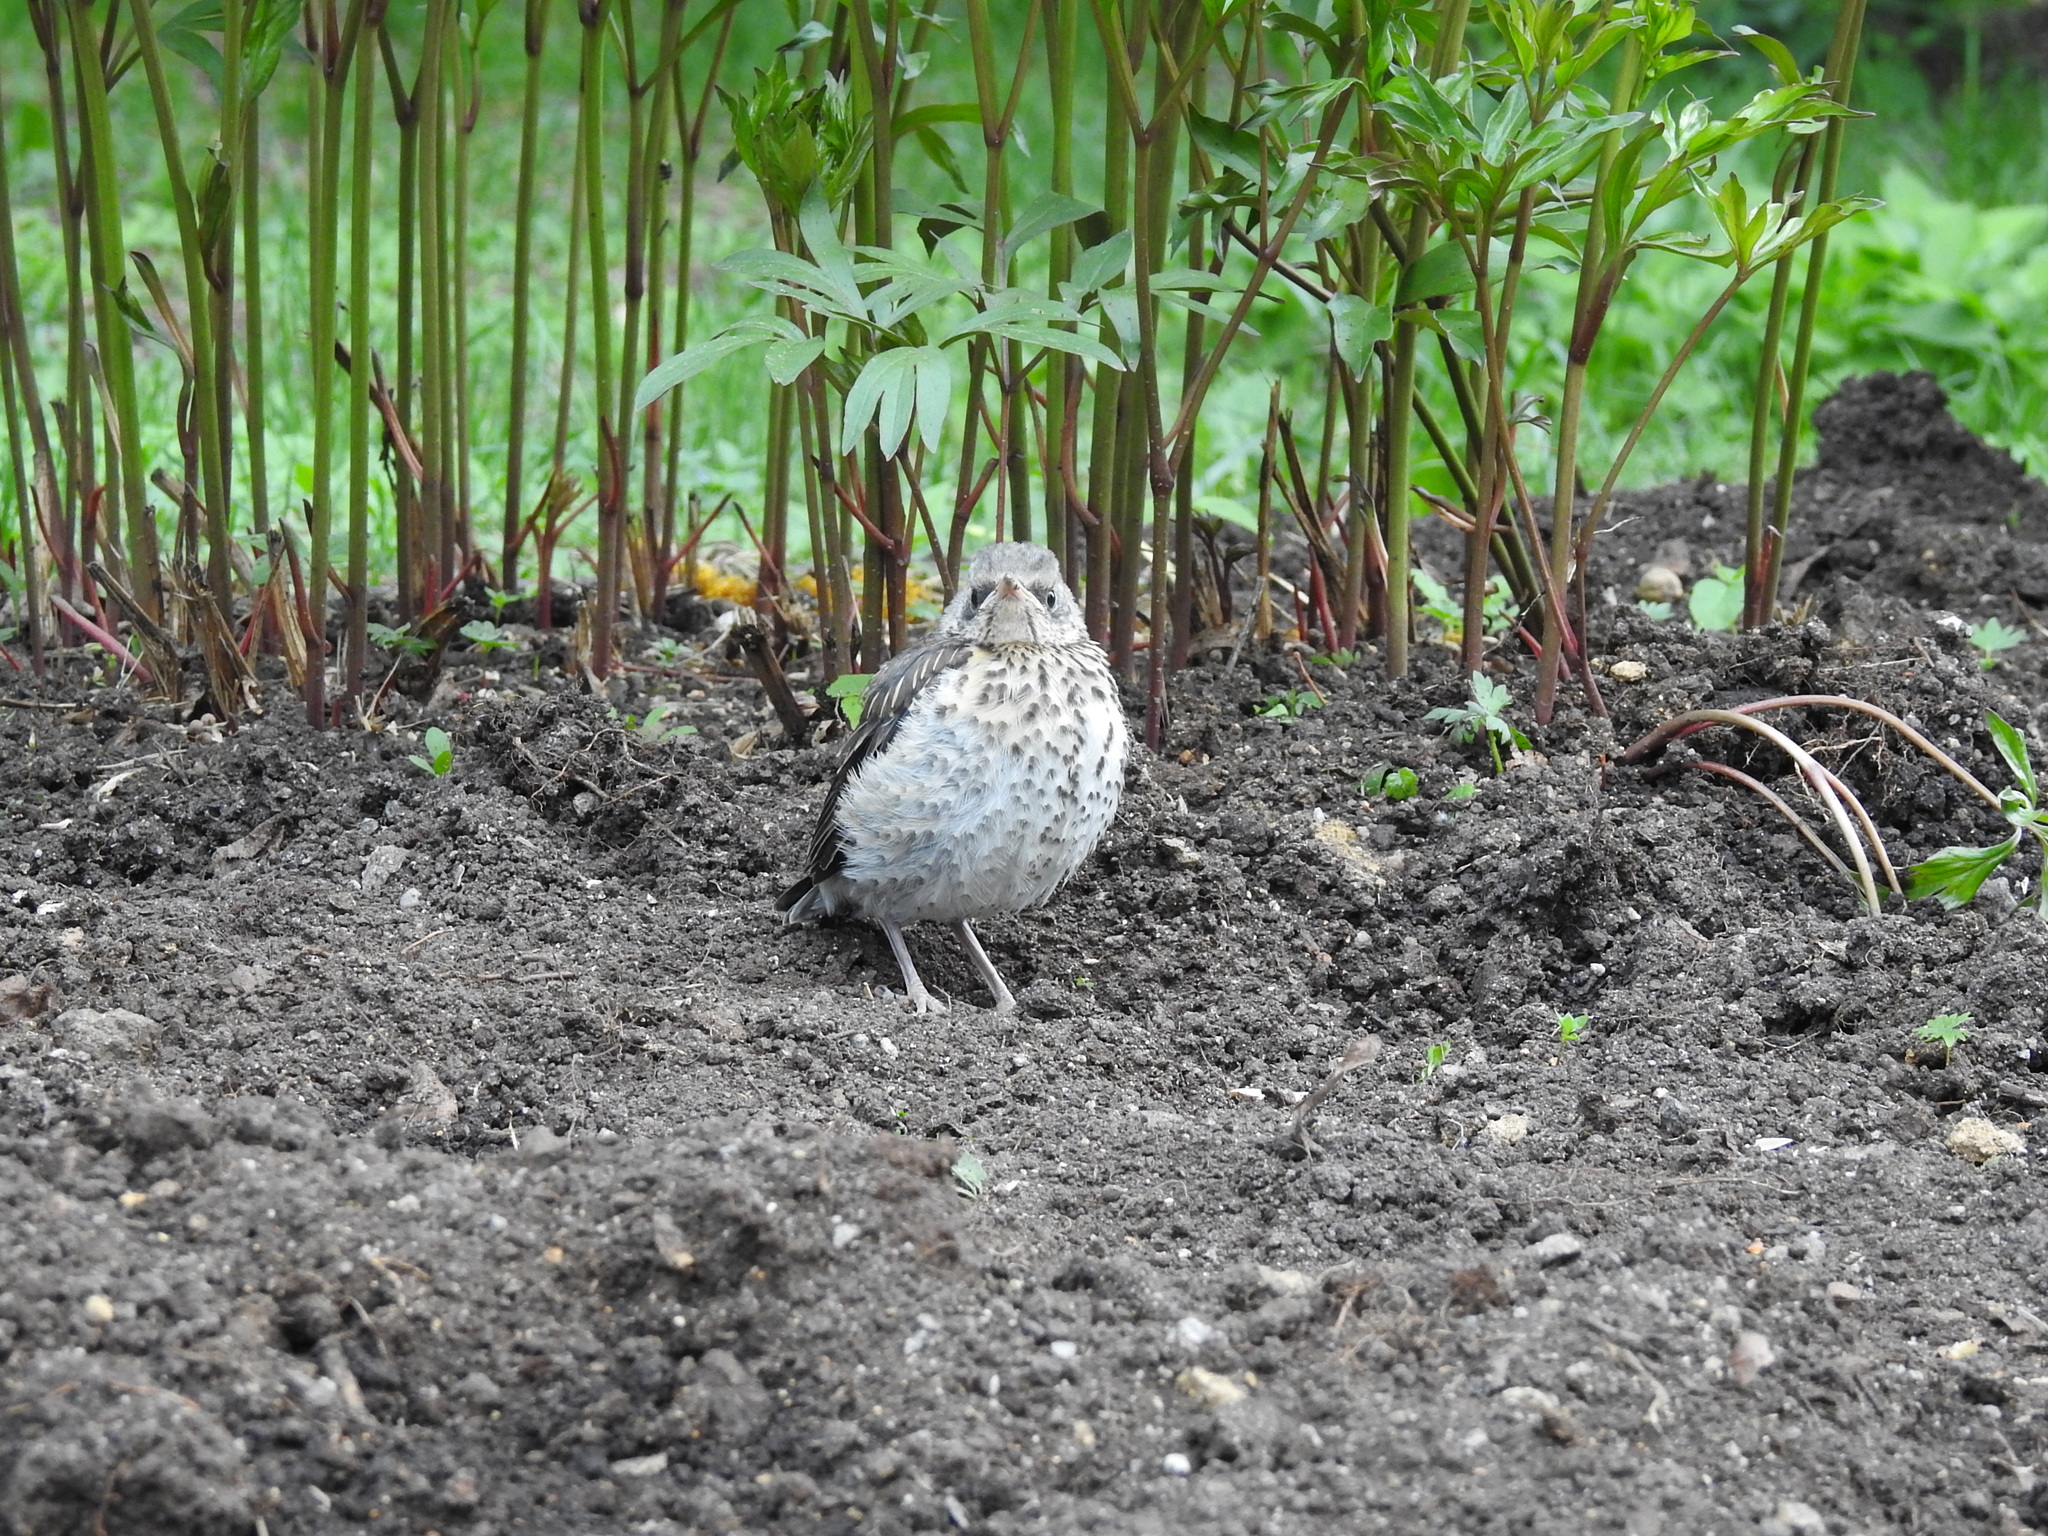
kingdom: Animalia
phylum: Chordata
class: Aves
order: Passeriformes
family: Turdidae
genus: Turdus
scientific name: Turdus pilaris
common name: Fieldfare
